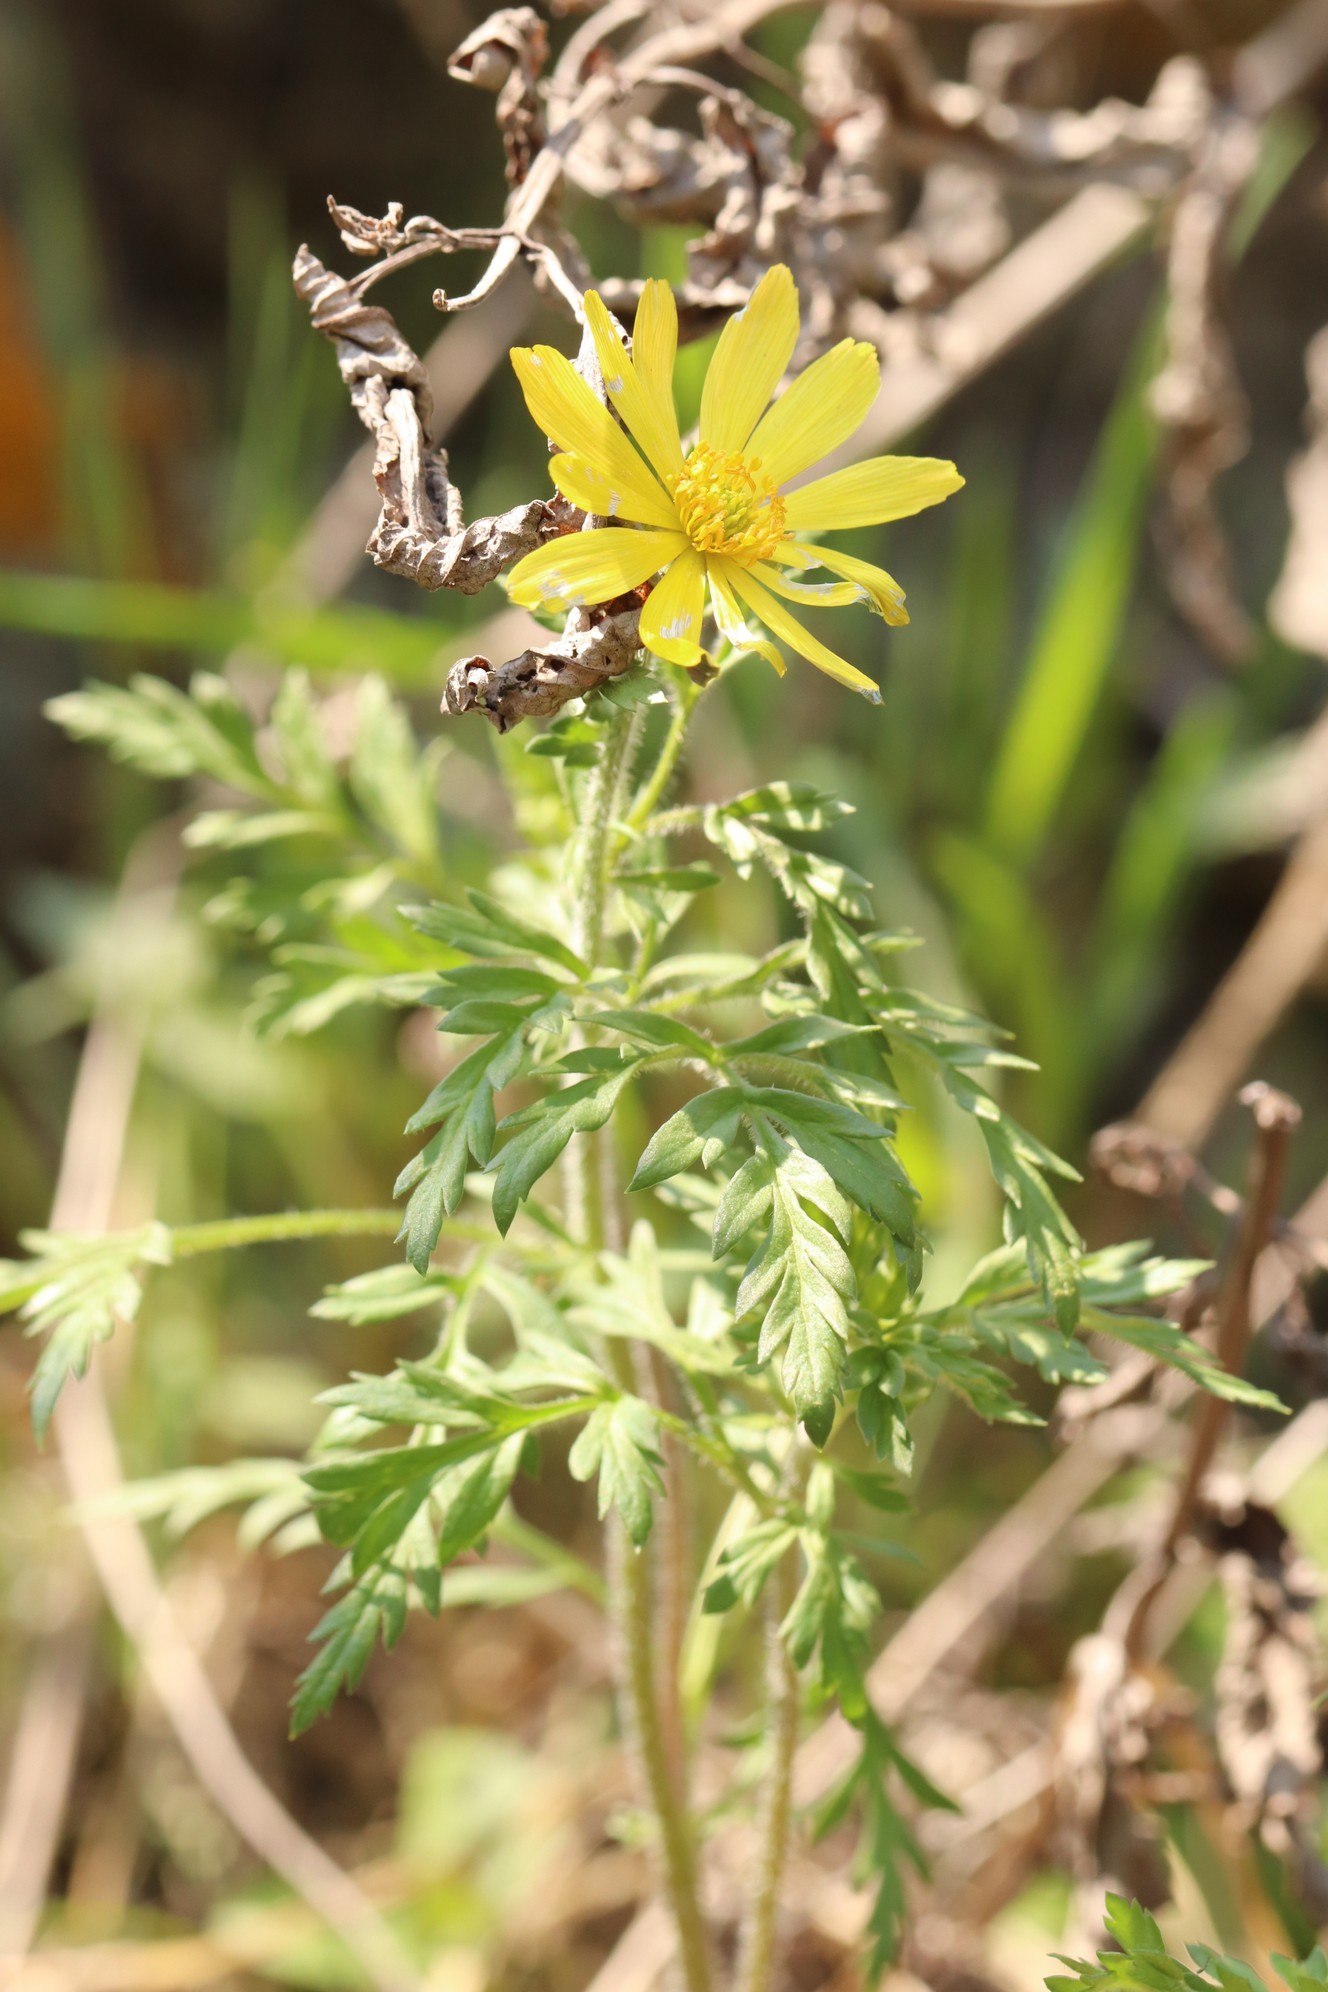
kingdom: Plantae
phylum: Tracheophyta
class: Magnoliopsida
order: Ranunculales
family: Ranunculaceae
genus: Adonis
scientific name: Adonis villosa
